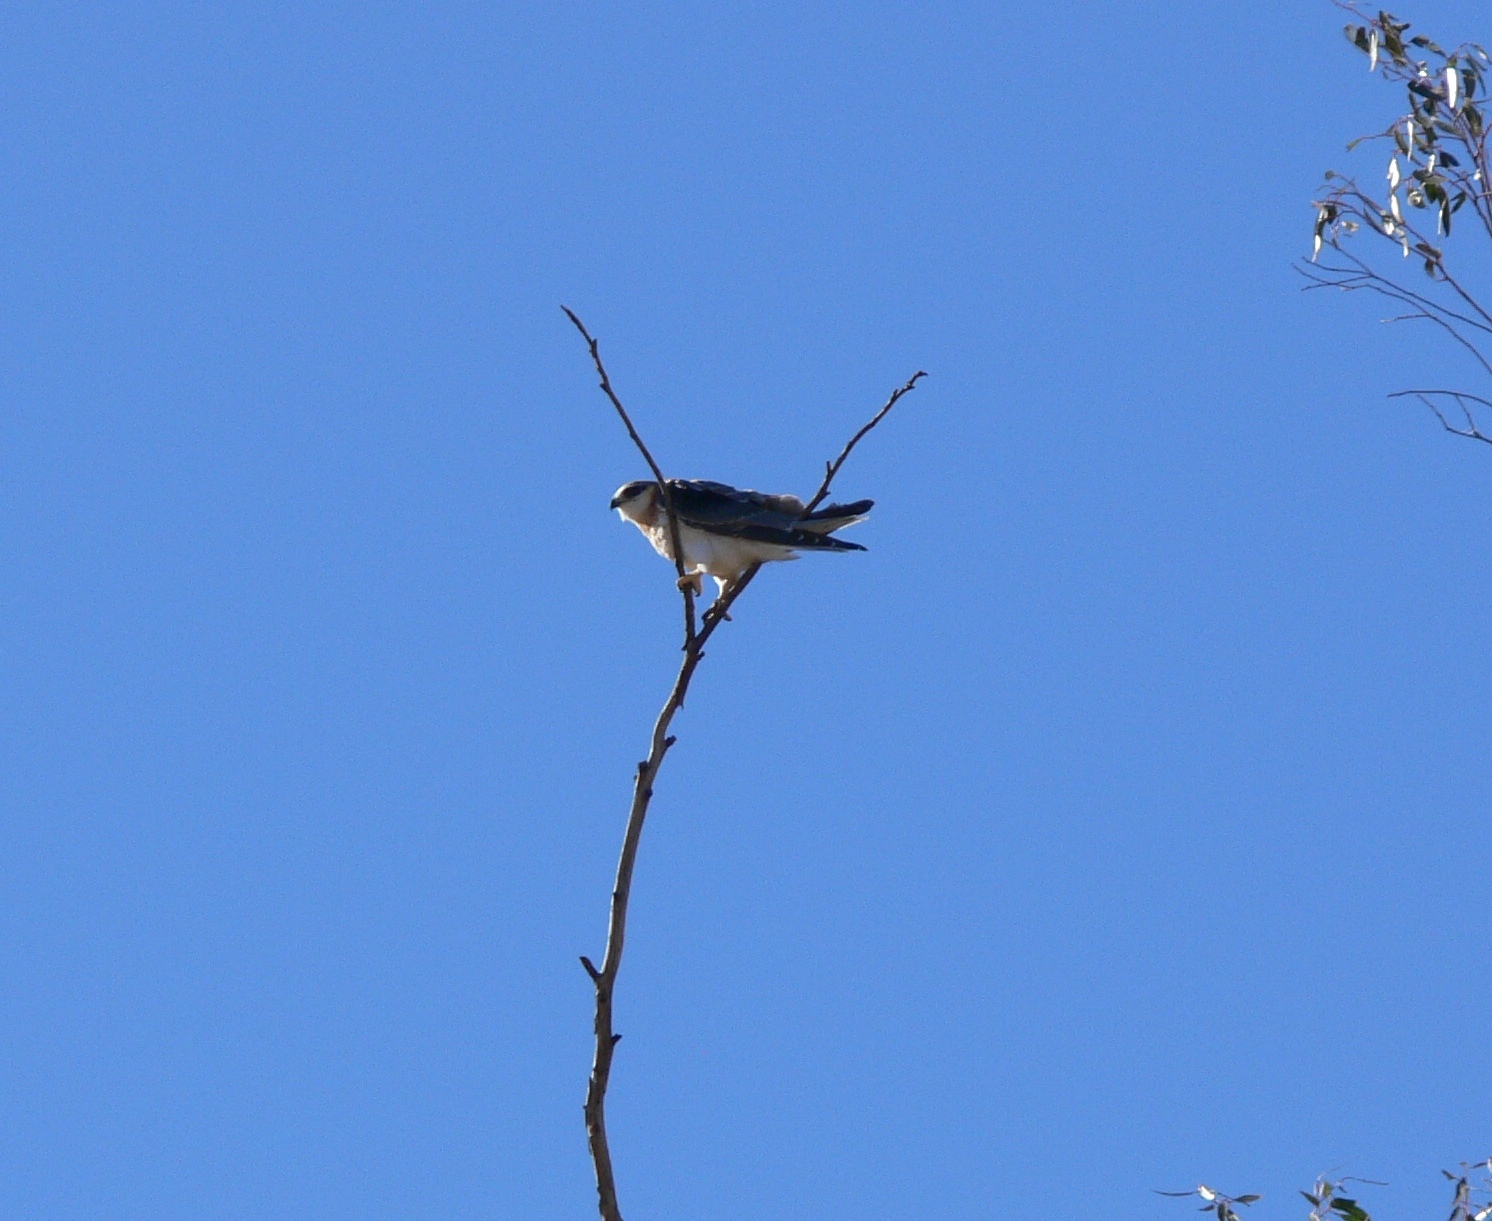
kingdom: Animalia
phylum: Chordata
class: Aves
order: Accipitriformes
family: Accipitridae
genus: Elanus
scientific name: Elanus axillaris
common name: Black-shouldered kite
